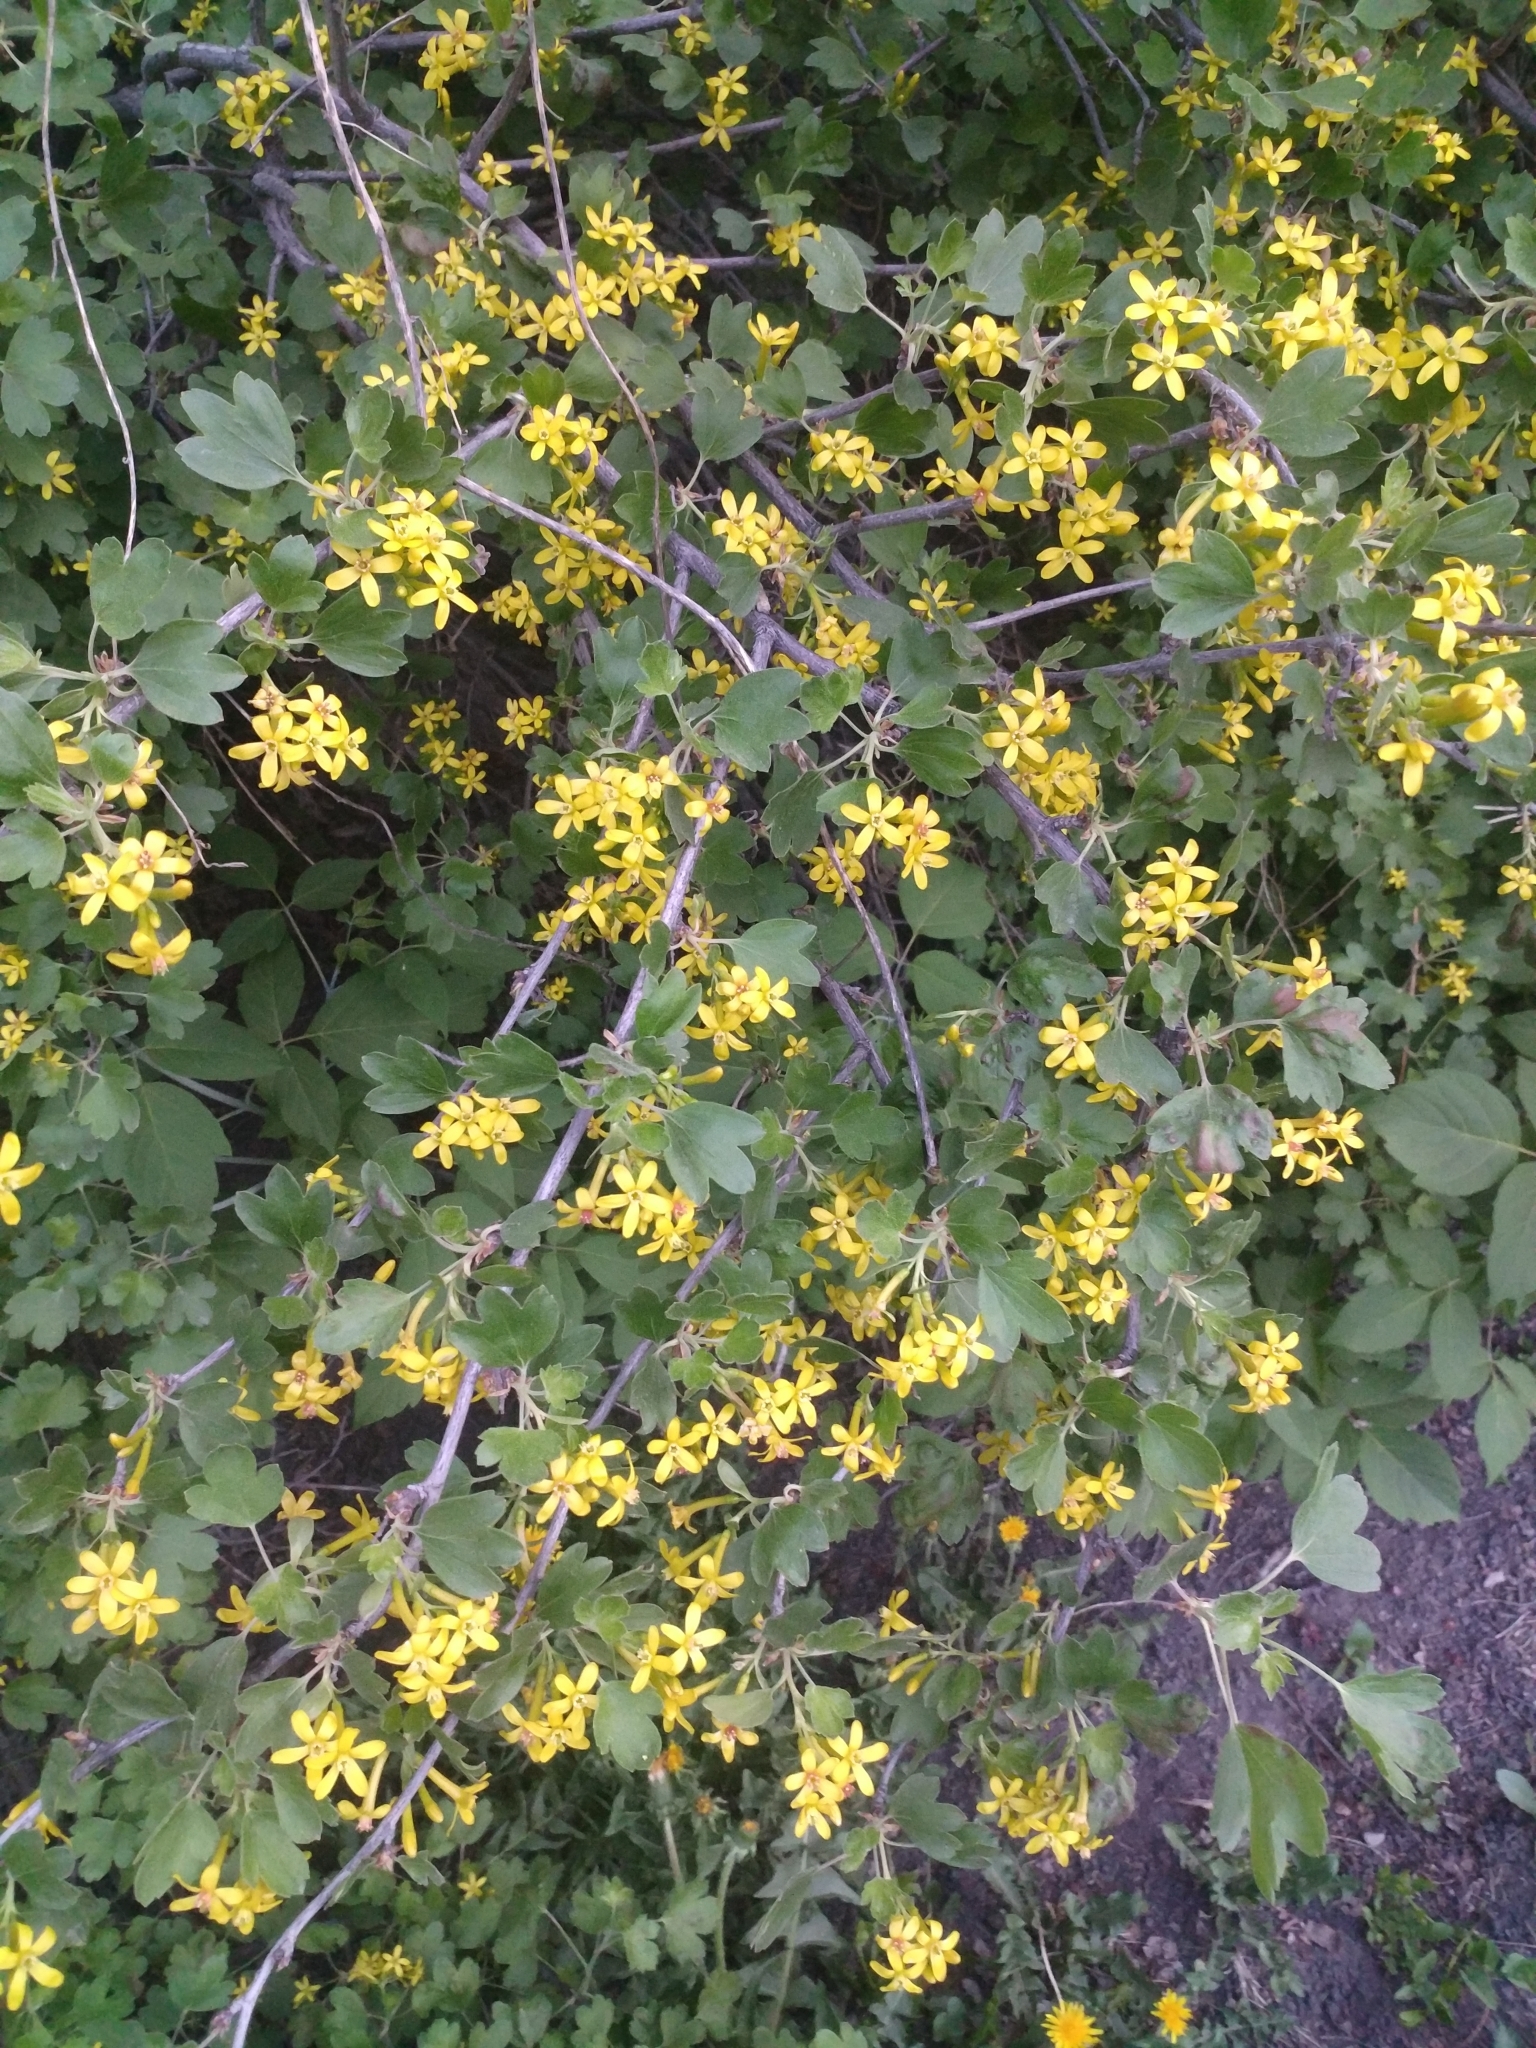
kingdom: Plantae
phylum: Tracheophyta
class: Magnoliopsida
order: Saxifragales
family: Grossulariaceae
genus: Ribes
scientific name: Ribes aureum
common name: Golden currant
